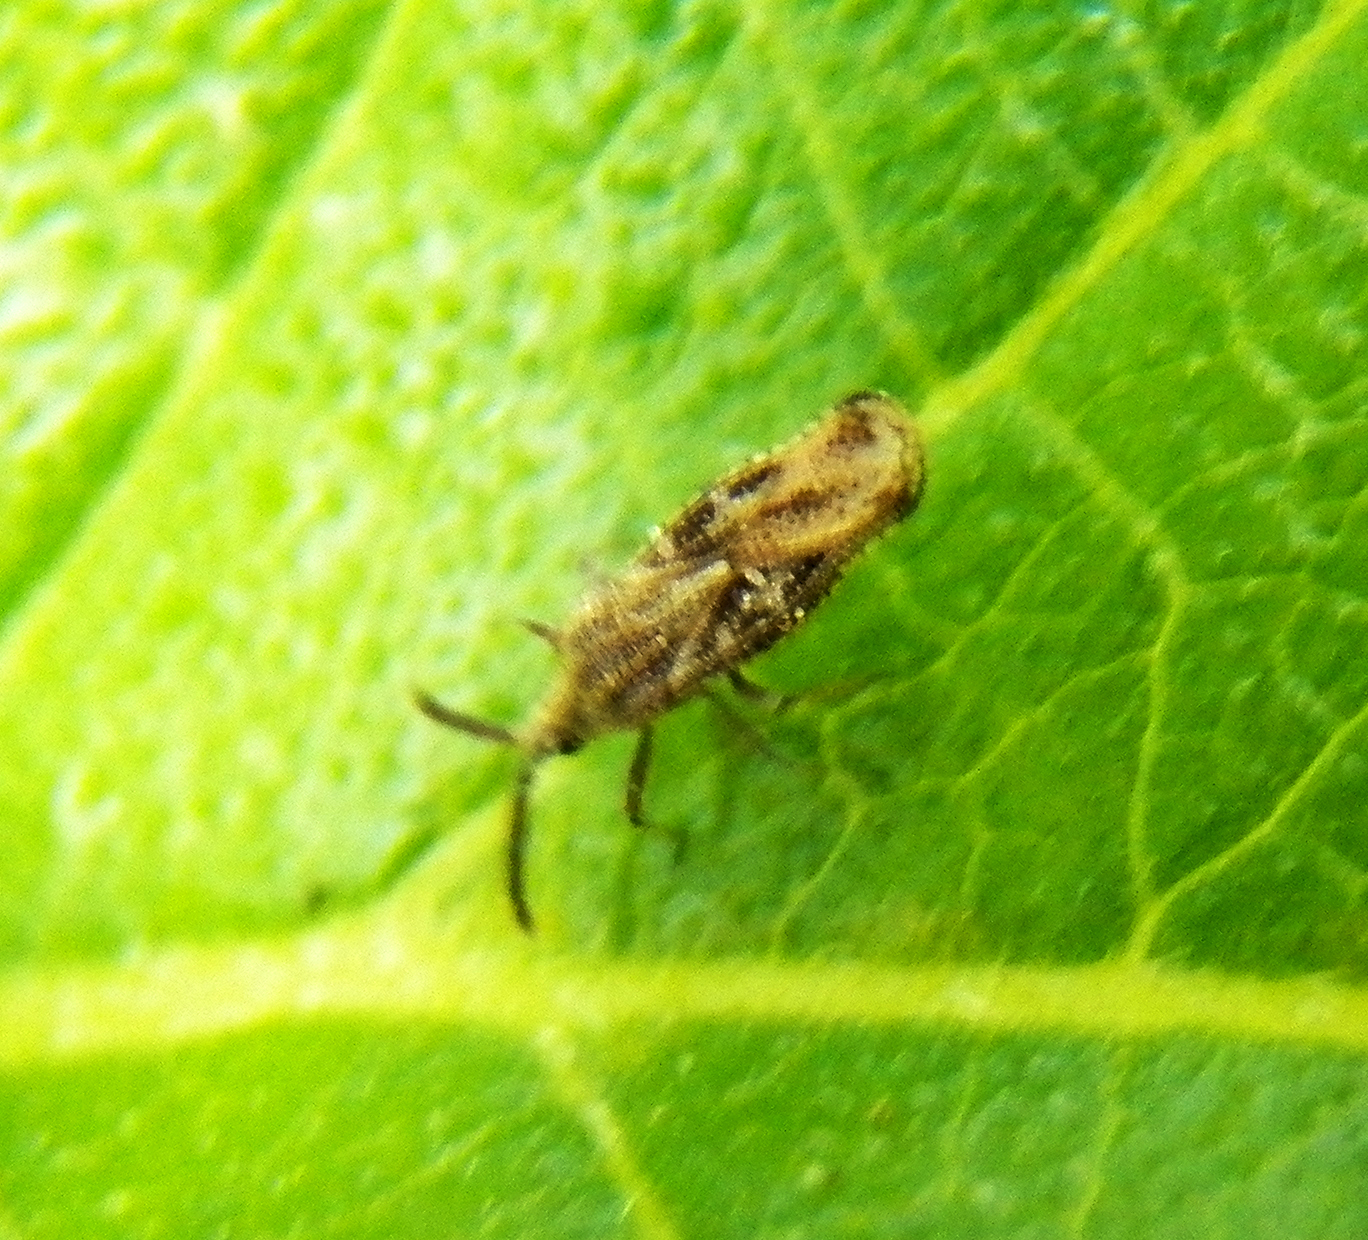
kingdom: Animalia
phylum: Arthropoda
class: Insecta
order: Hemiptera
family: Tingidae
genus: Teleonemia
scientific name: Teleonemia scrupulosa
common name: Lantana lace bug
